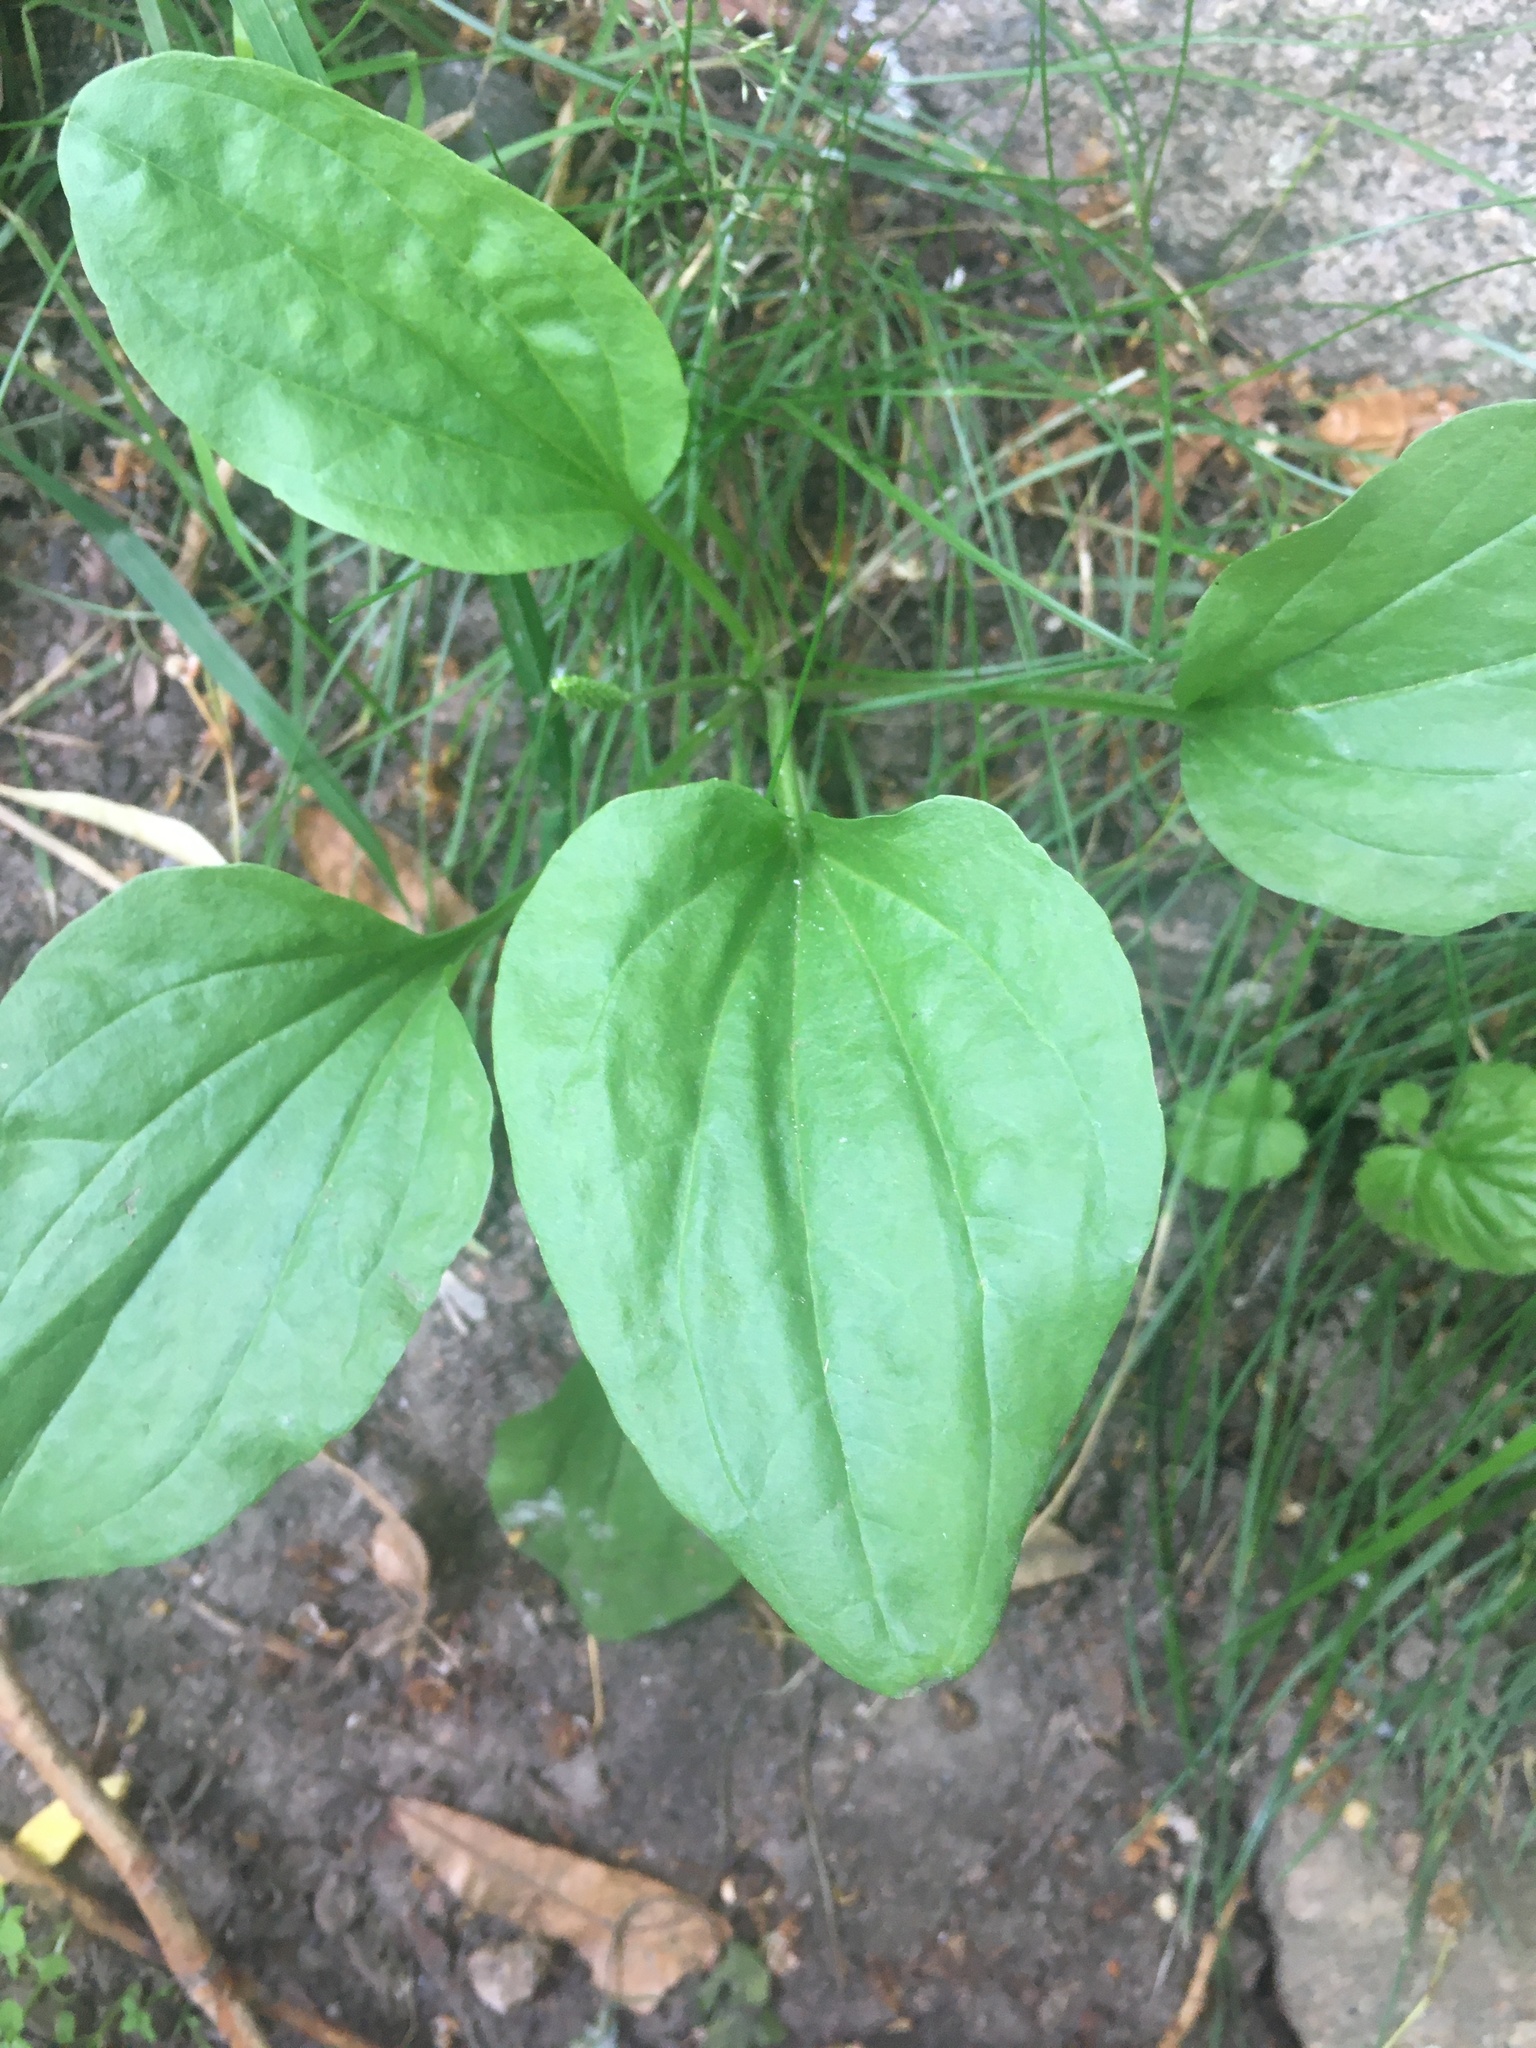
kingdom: Plantae
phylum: Tracheophyta
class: Magnoliopsida
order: Lamiales
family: Plantaginaceae
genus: Plantago
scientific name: Plantago major
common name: Common plantain
